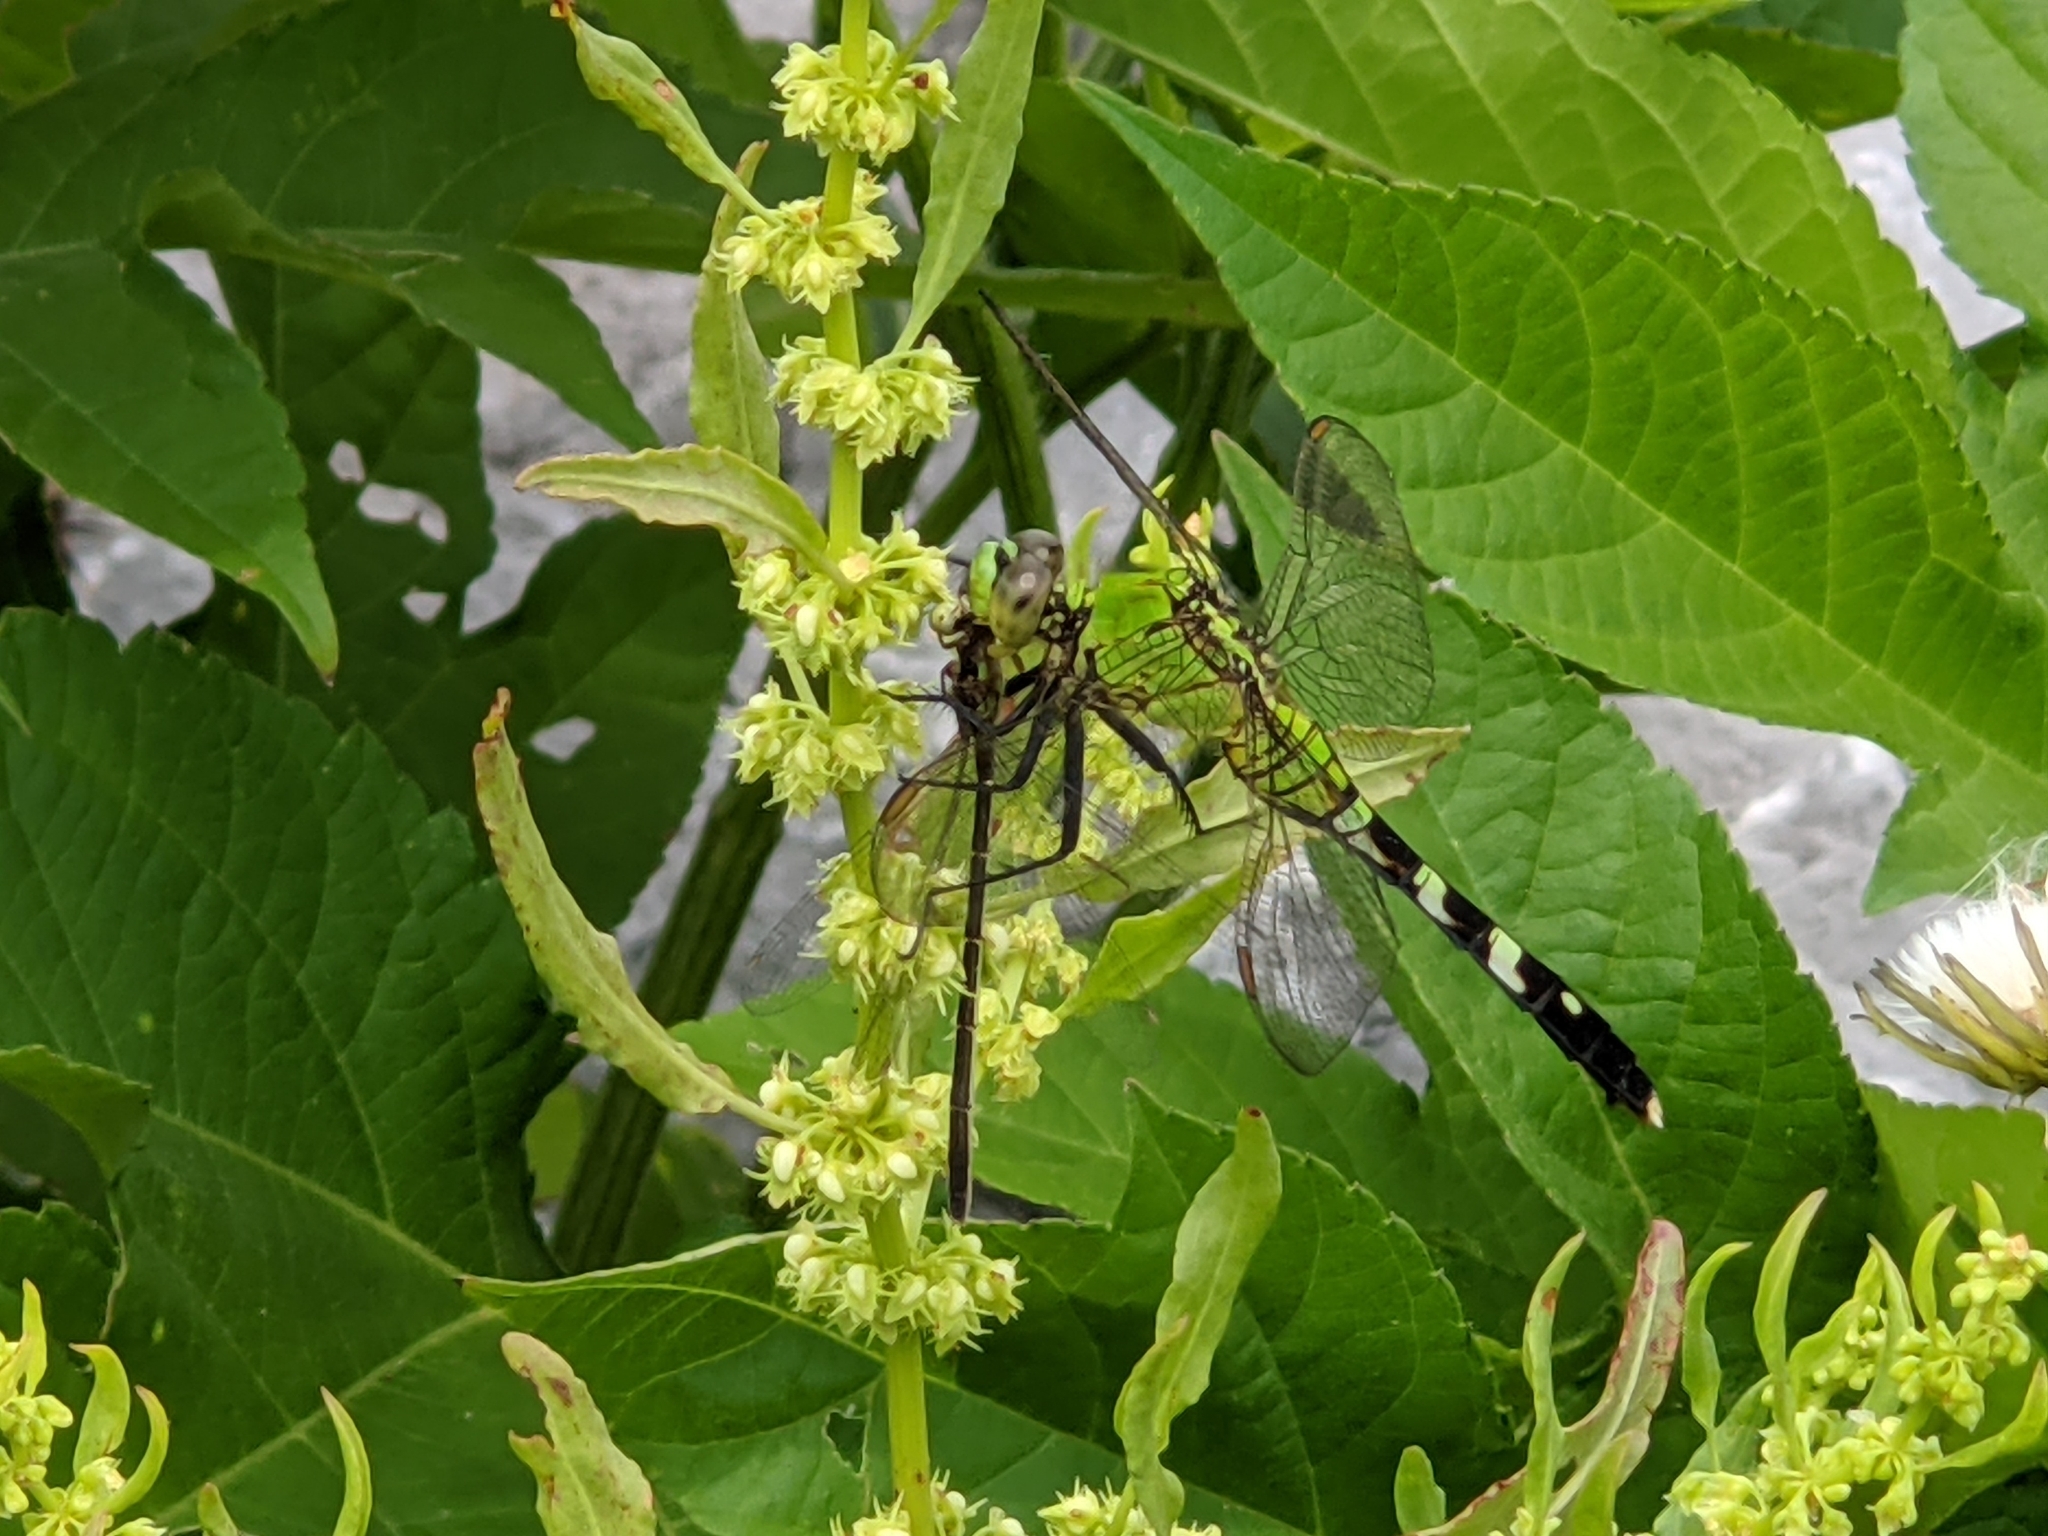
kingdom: Animalia
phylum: Arthropoda
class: Insecta
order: Odonata
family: Libellulidae
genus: Erythemis
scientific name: Erythemis simplicicollis
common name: Eastern pondhawk
